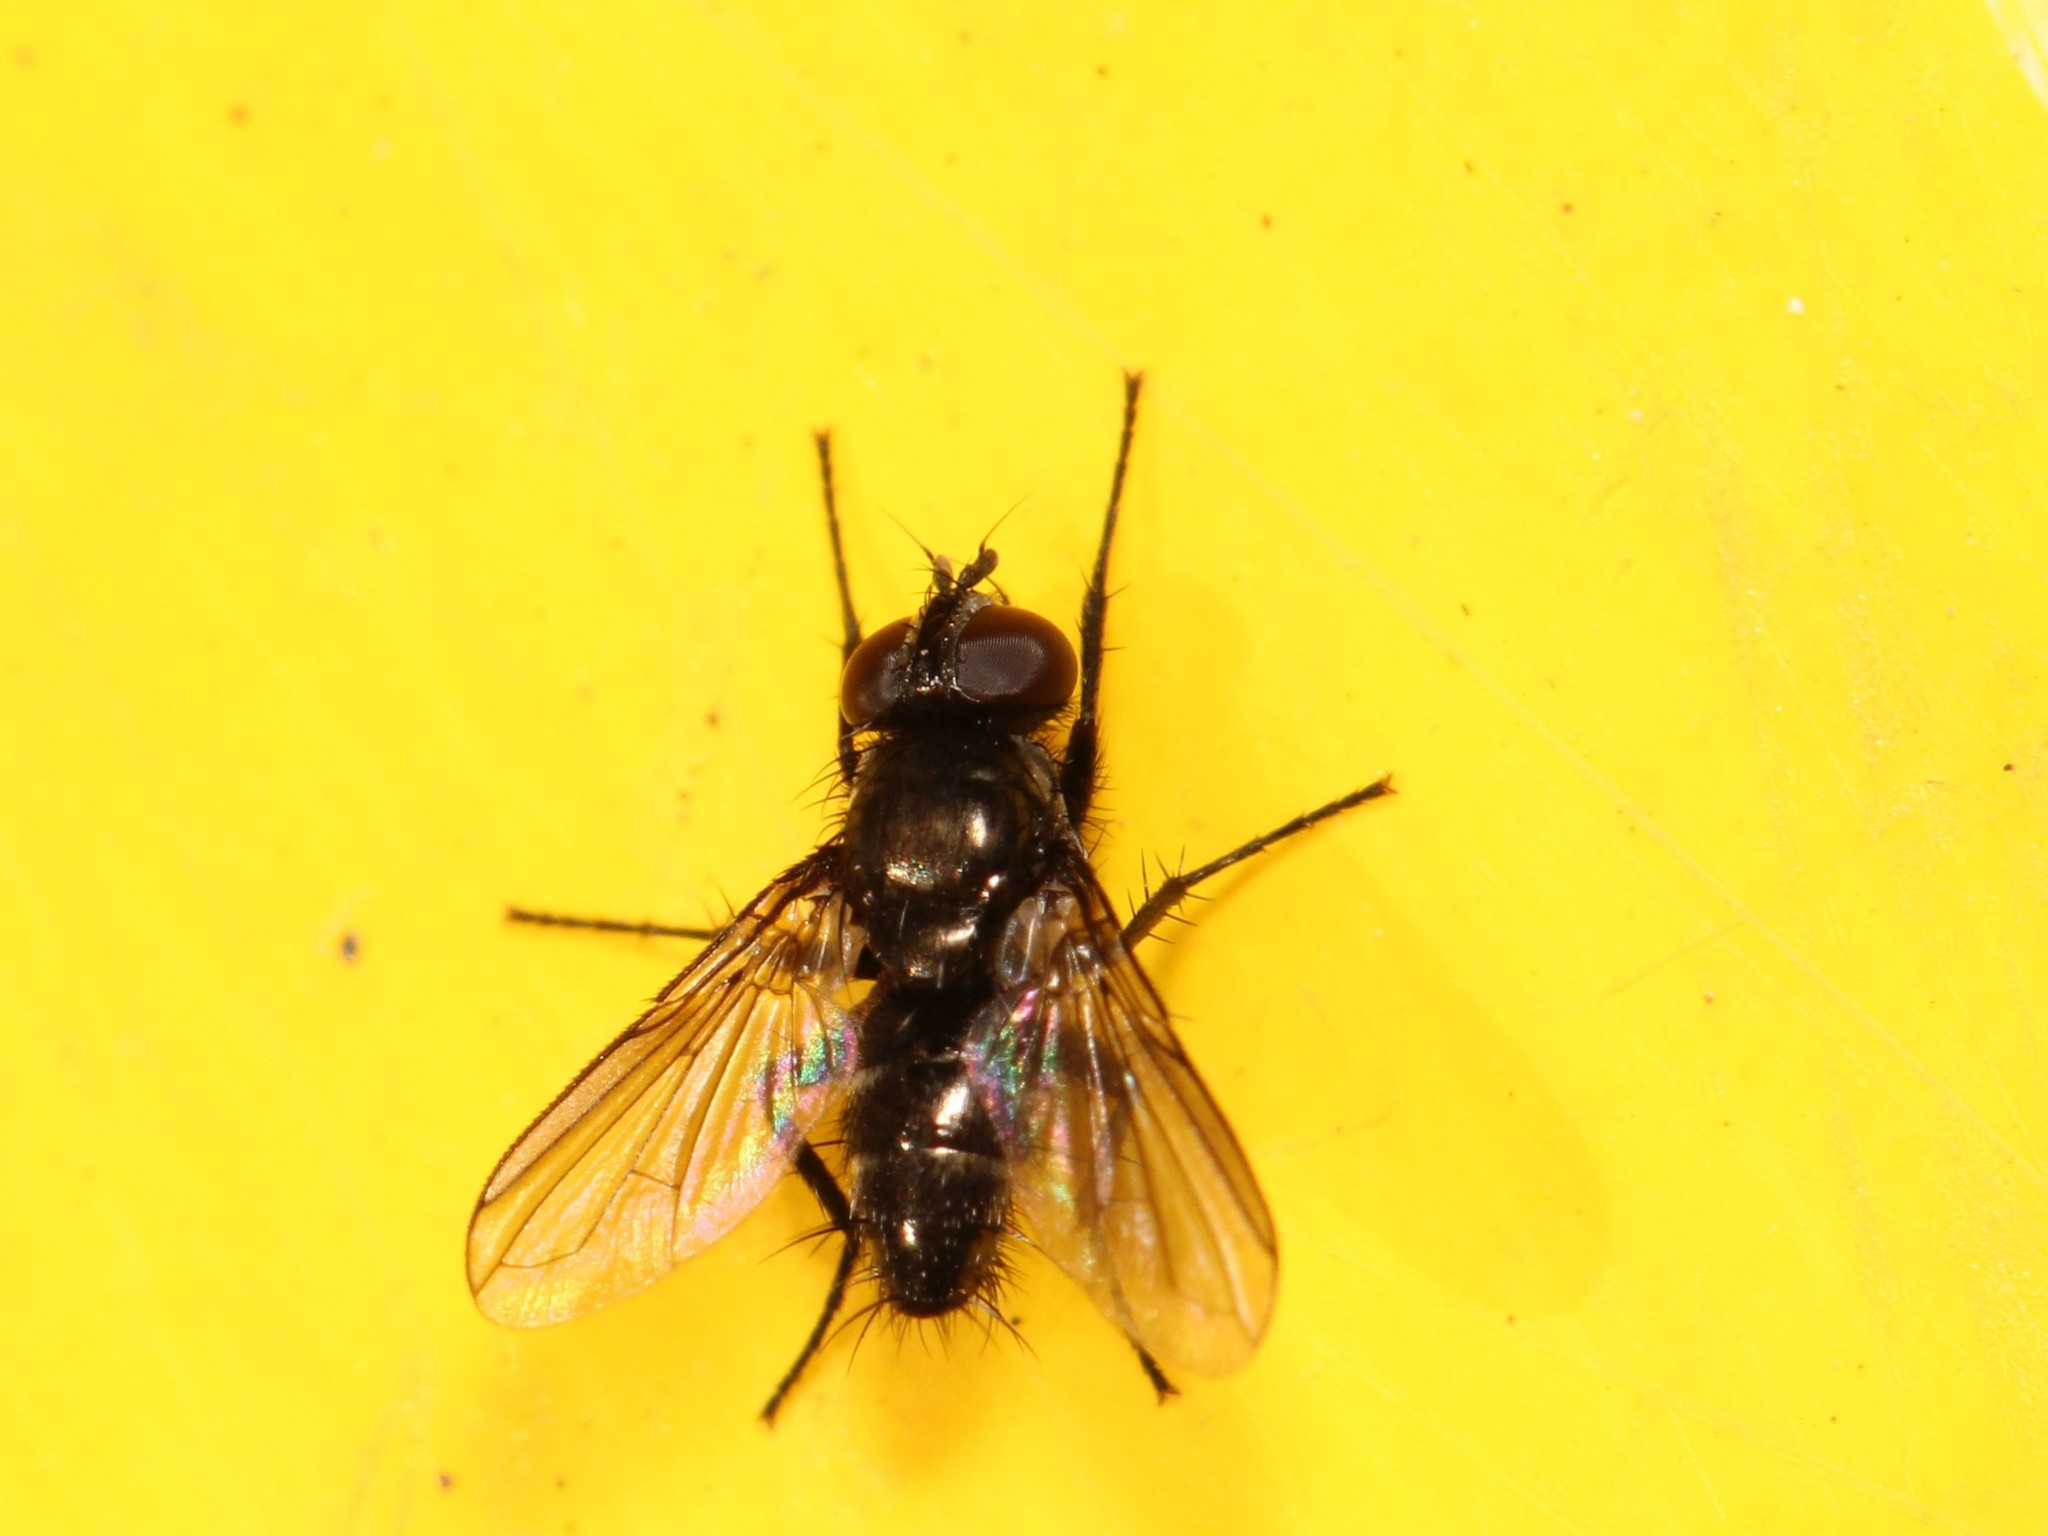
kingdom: Animalia
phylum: Arthropoda
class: Insecta
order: Diptera
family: Calliphoridae
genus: Rhinophora
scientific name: Rhinophora lepida
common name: Pouting woodlouse-fly
